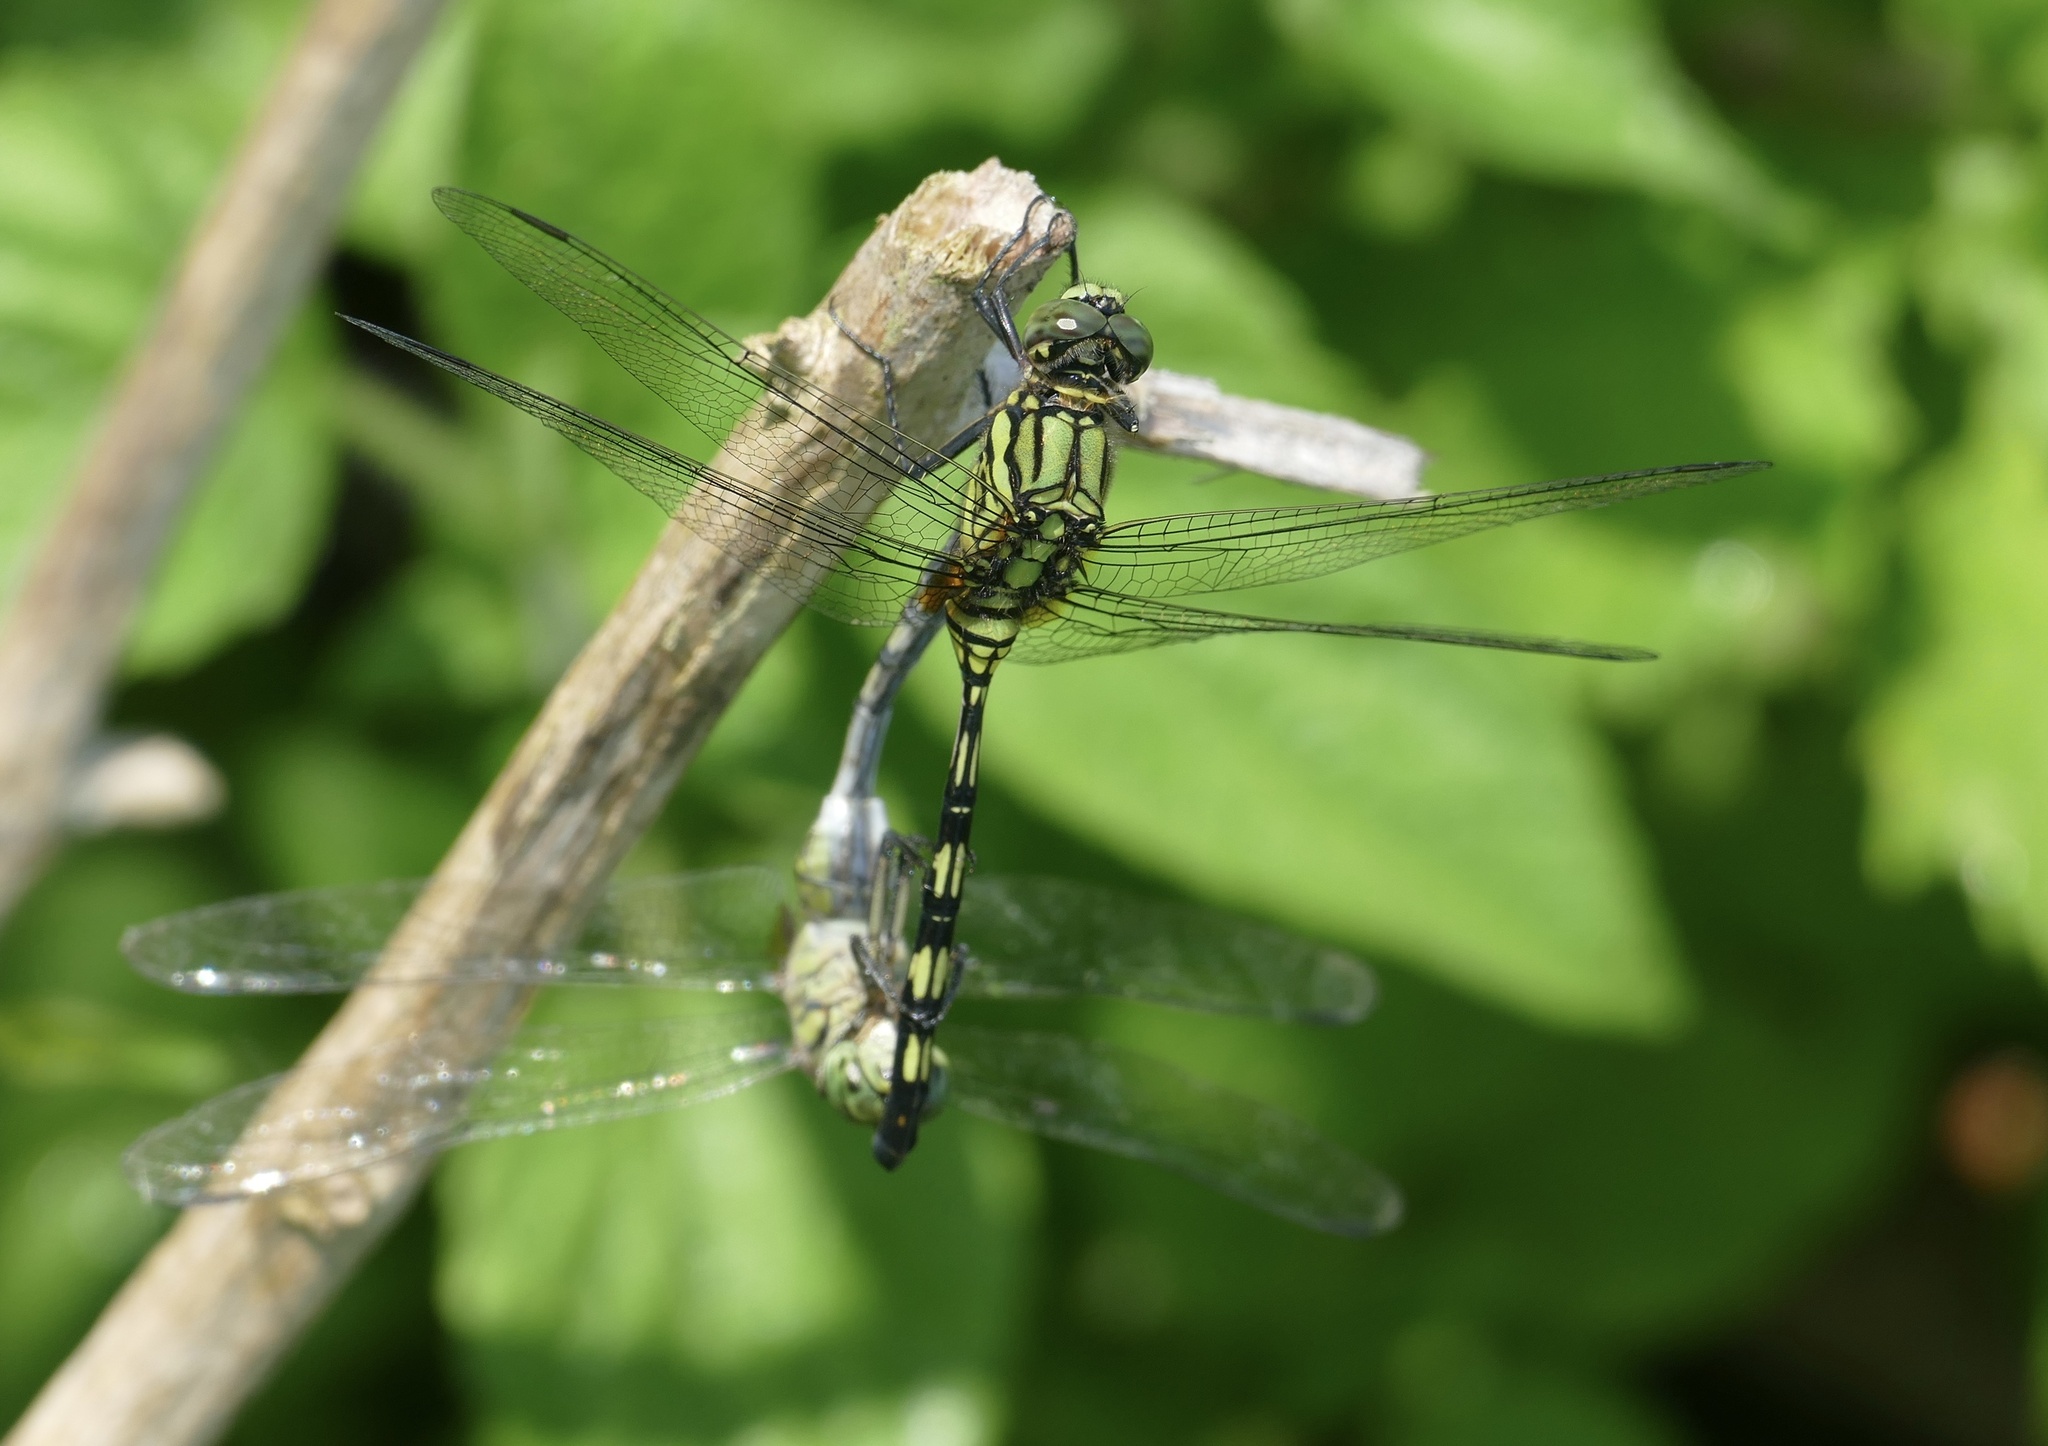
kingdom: Animalia
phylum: Arthropoda
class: Insecta
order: Odonata
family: Libellulidae
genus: Orthetrum
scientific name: Orthetrum serapia
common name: Green skimmer
